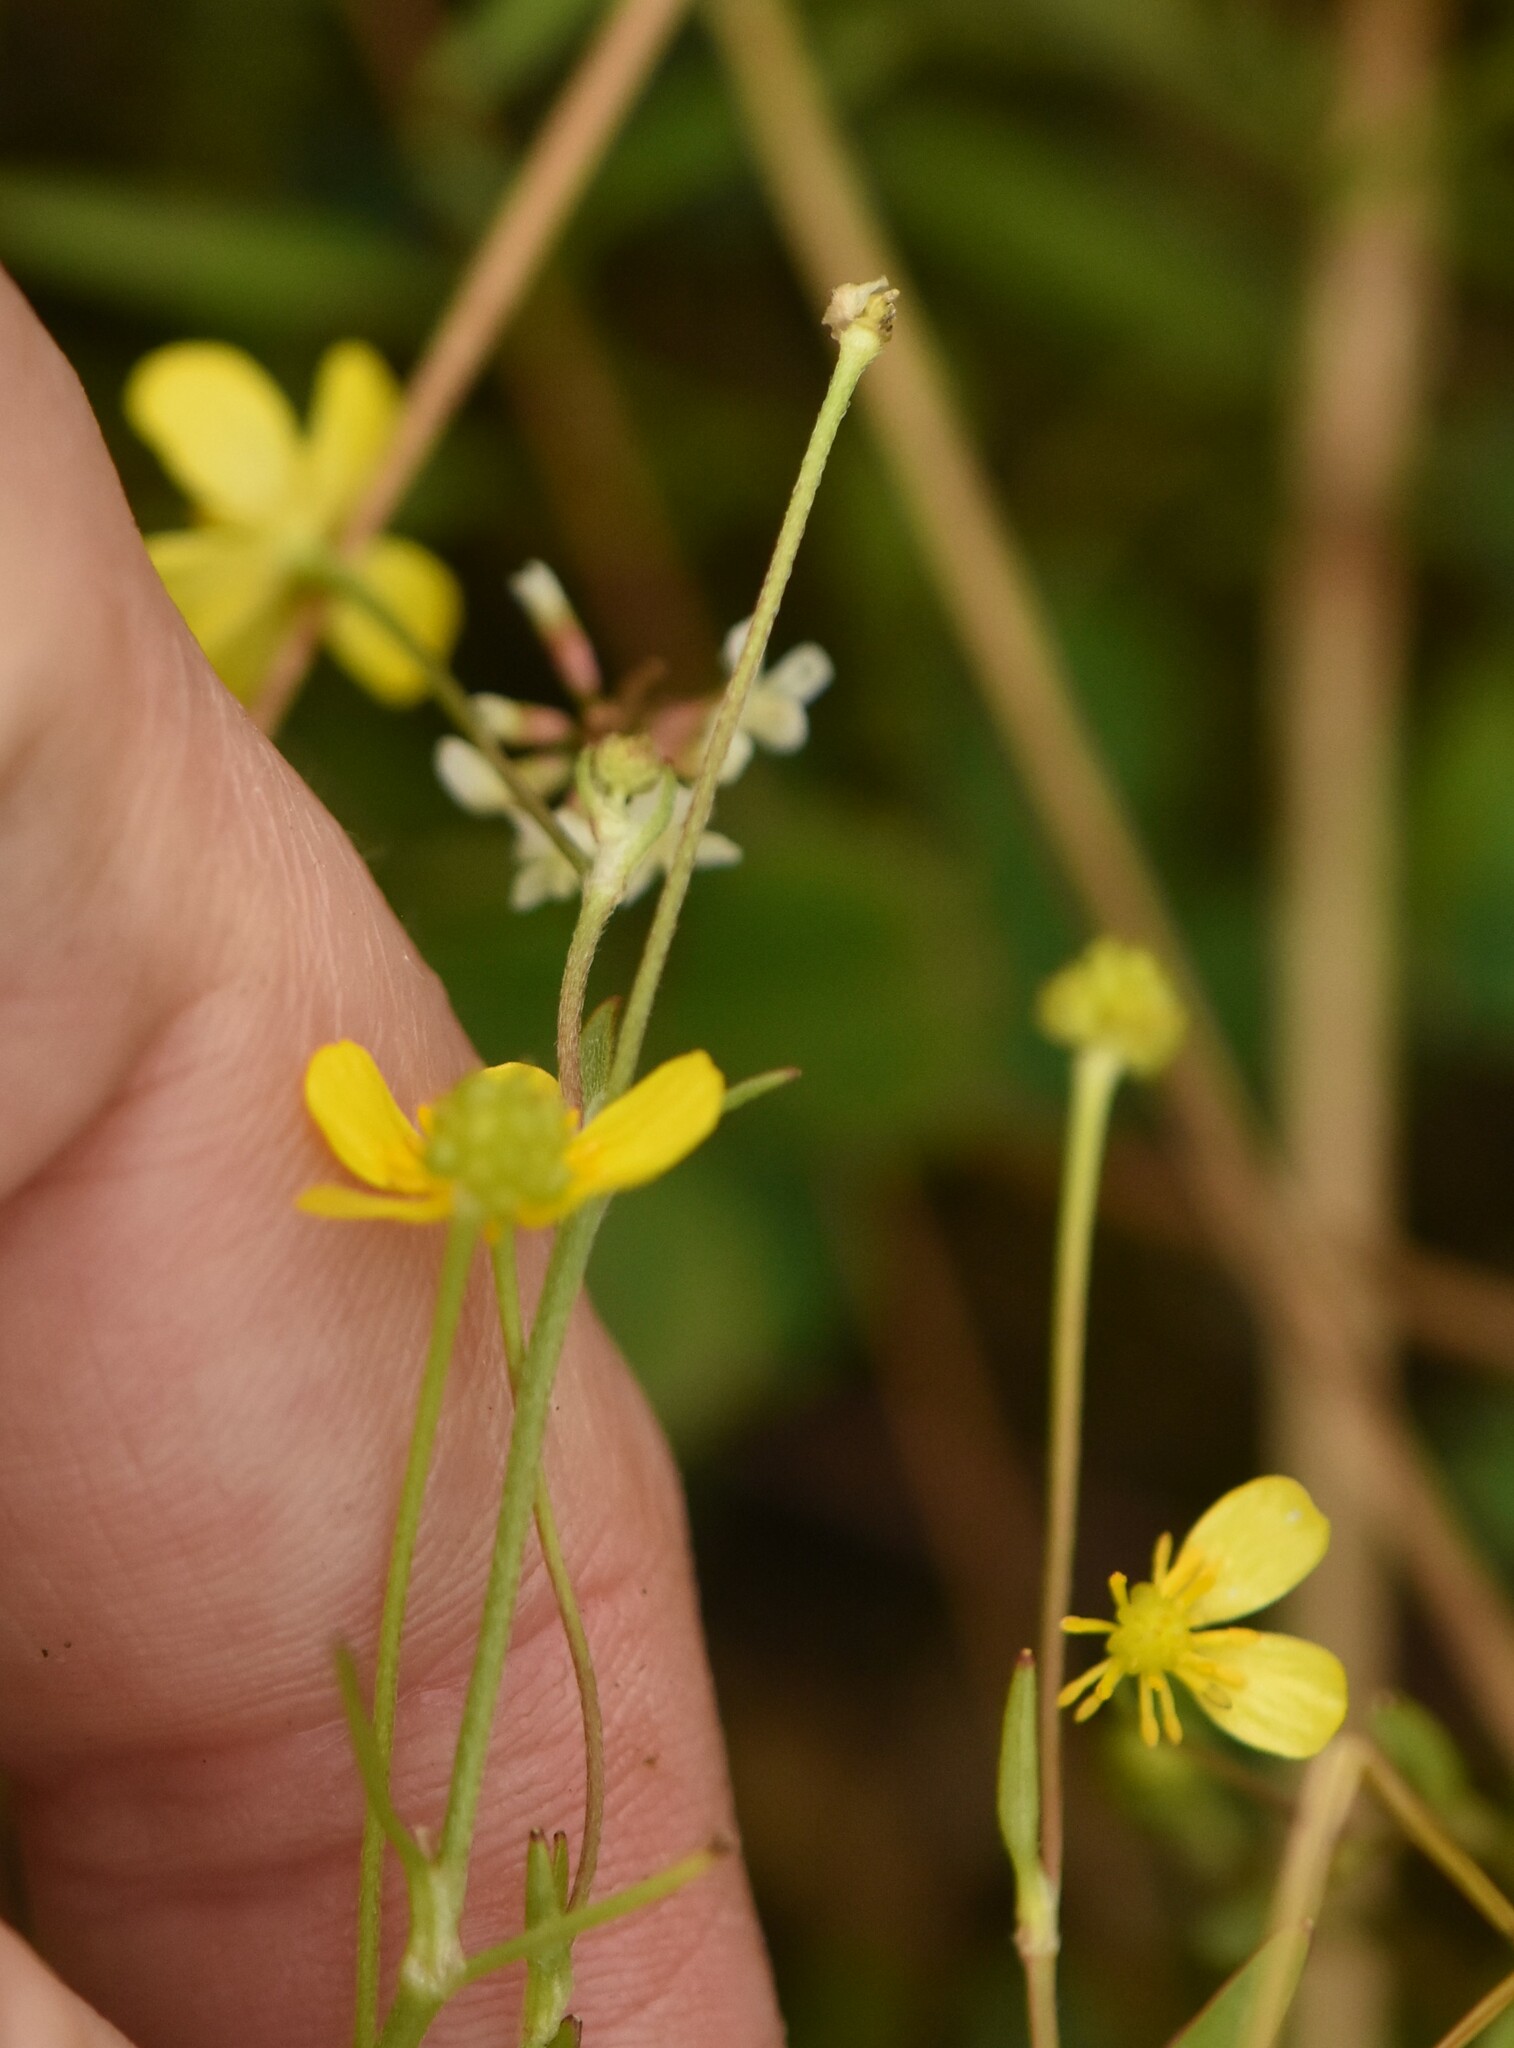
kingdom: Plantae
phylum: Tracheophyta
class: Magnoliopsida
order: Ranunculales
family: Ranunculaceae
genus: Ranunculus
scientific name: Ranunculus flammula
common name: Lesser spearwort
